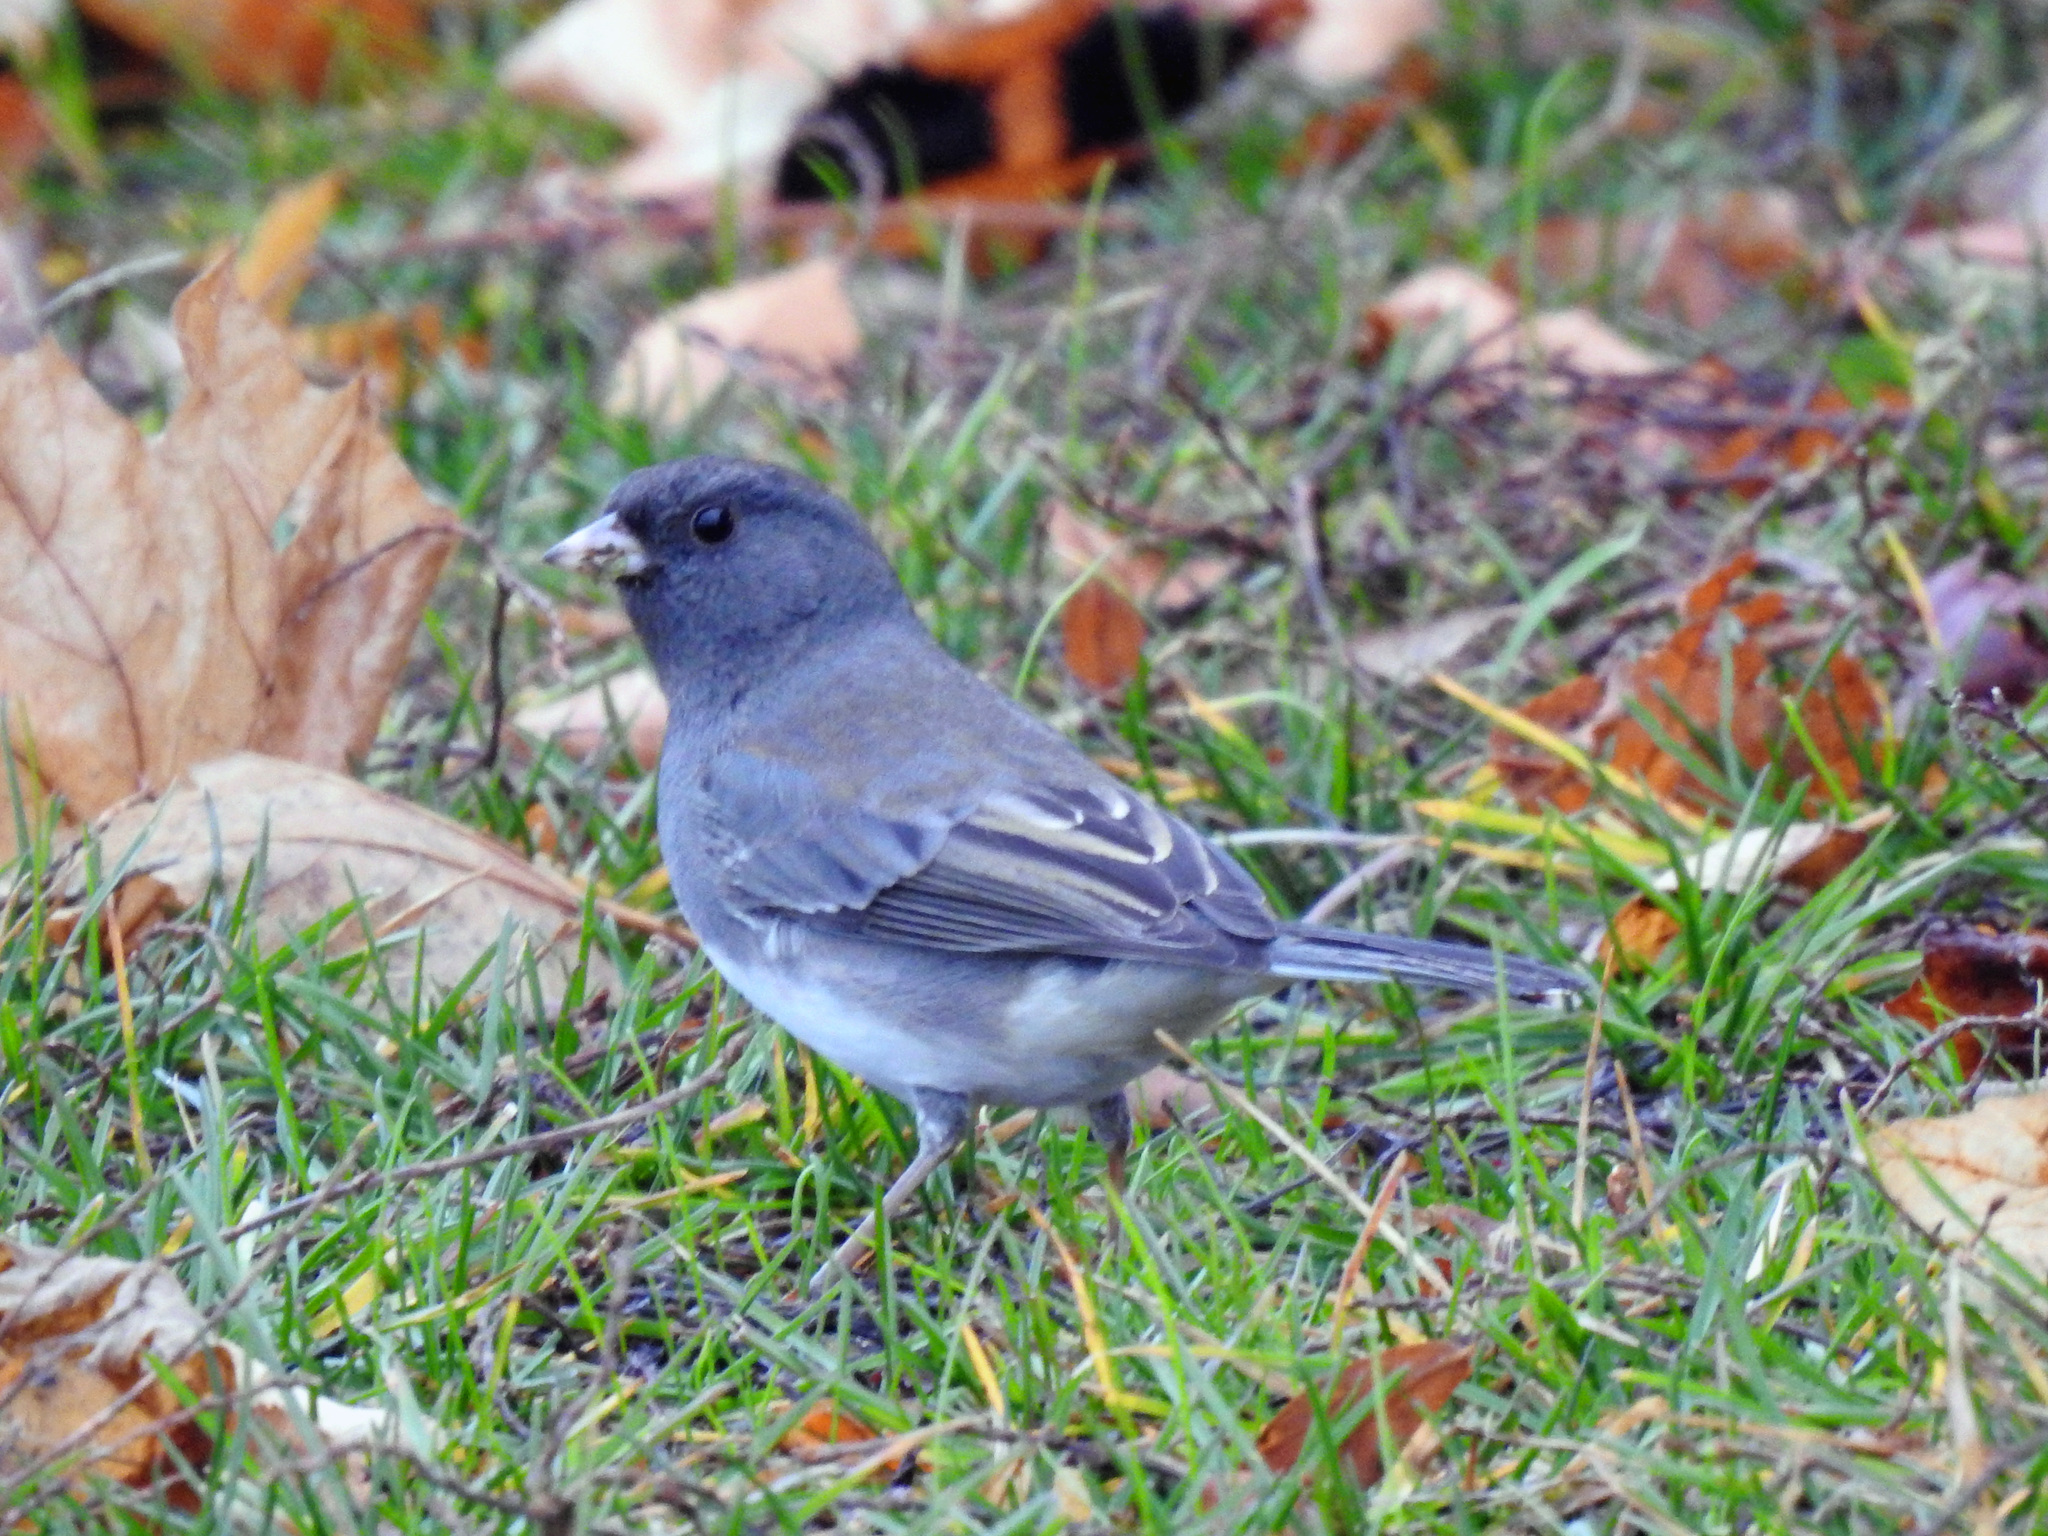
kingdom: Animalia
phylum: Chordata
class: Aves
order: Passeriformes
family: Passerellidae
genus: Junco
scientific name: Junco hyemalis
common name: Dark-eyed junco
